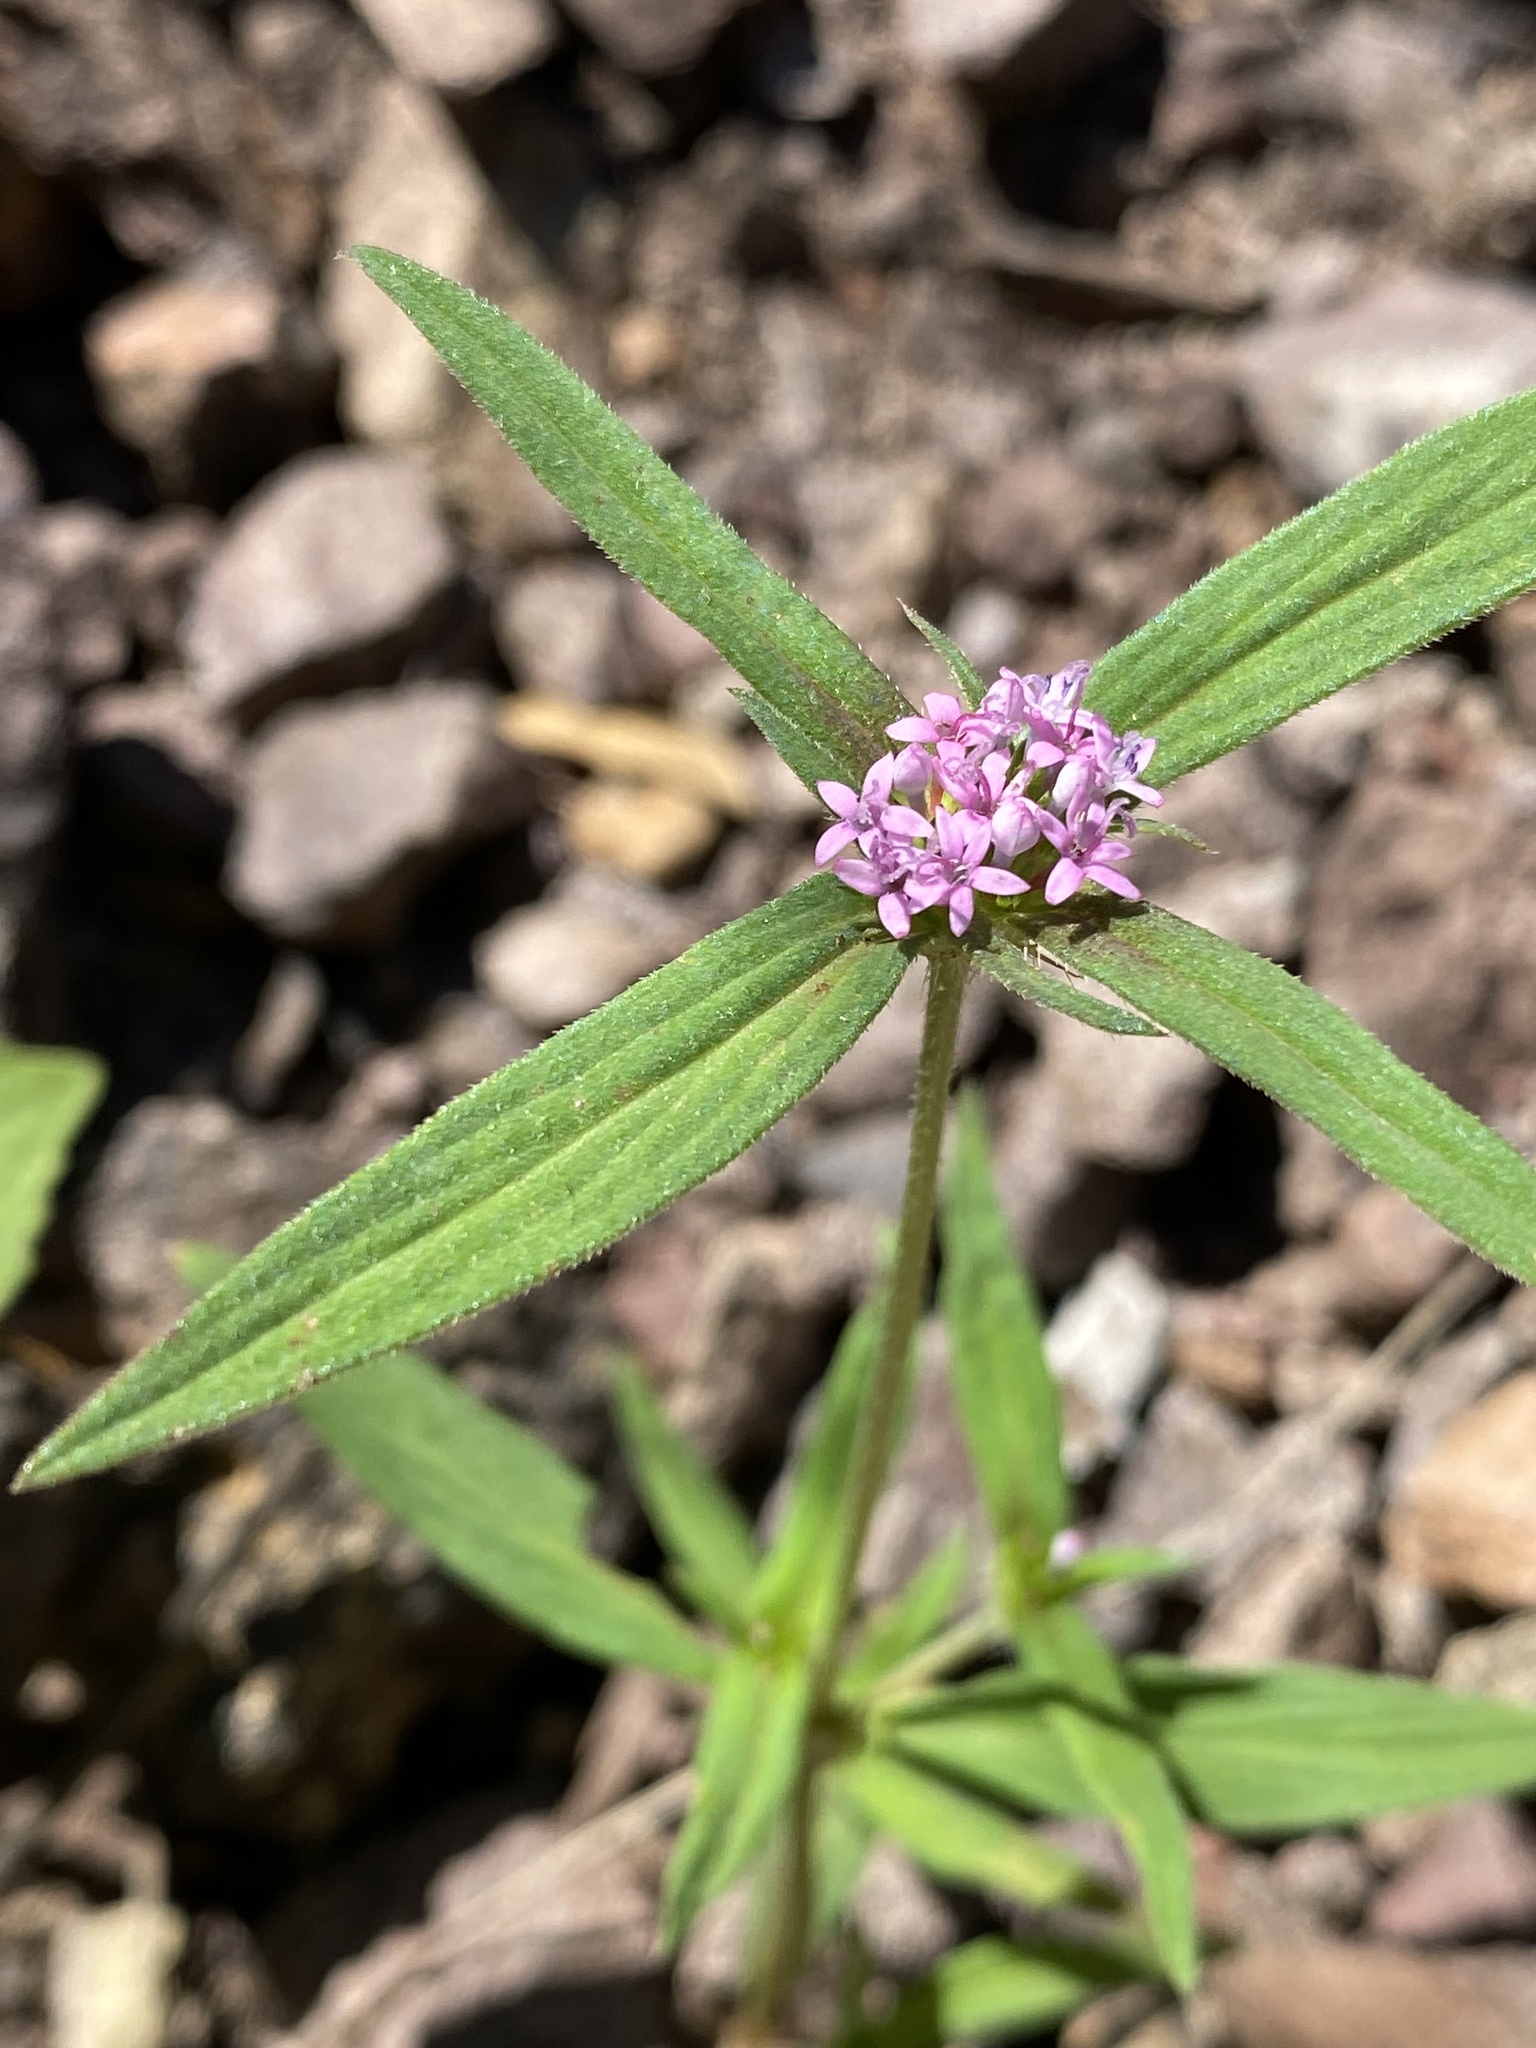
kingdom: Plantae
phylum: Tracheophyta
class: Magnoliopsida
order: Gentianales
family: Rubiaceae
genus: Crusea
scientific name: Crusea wrightii
